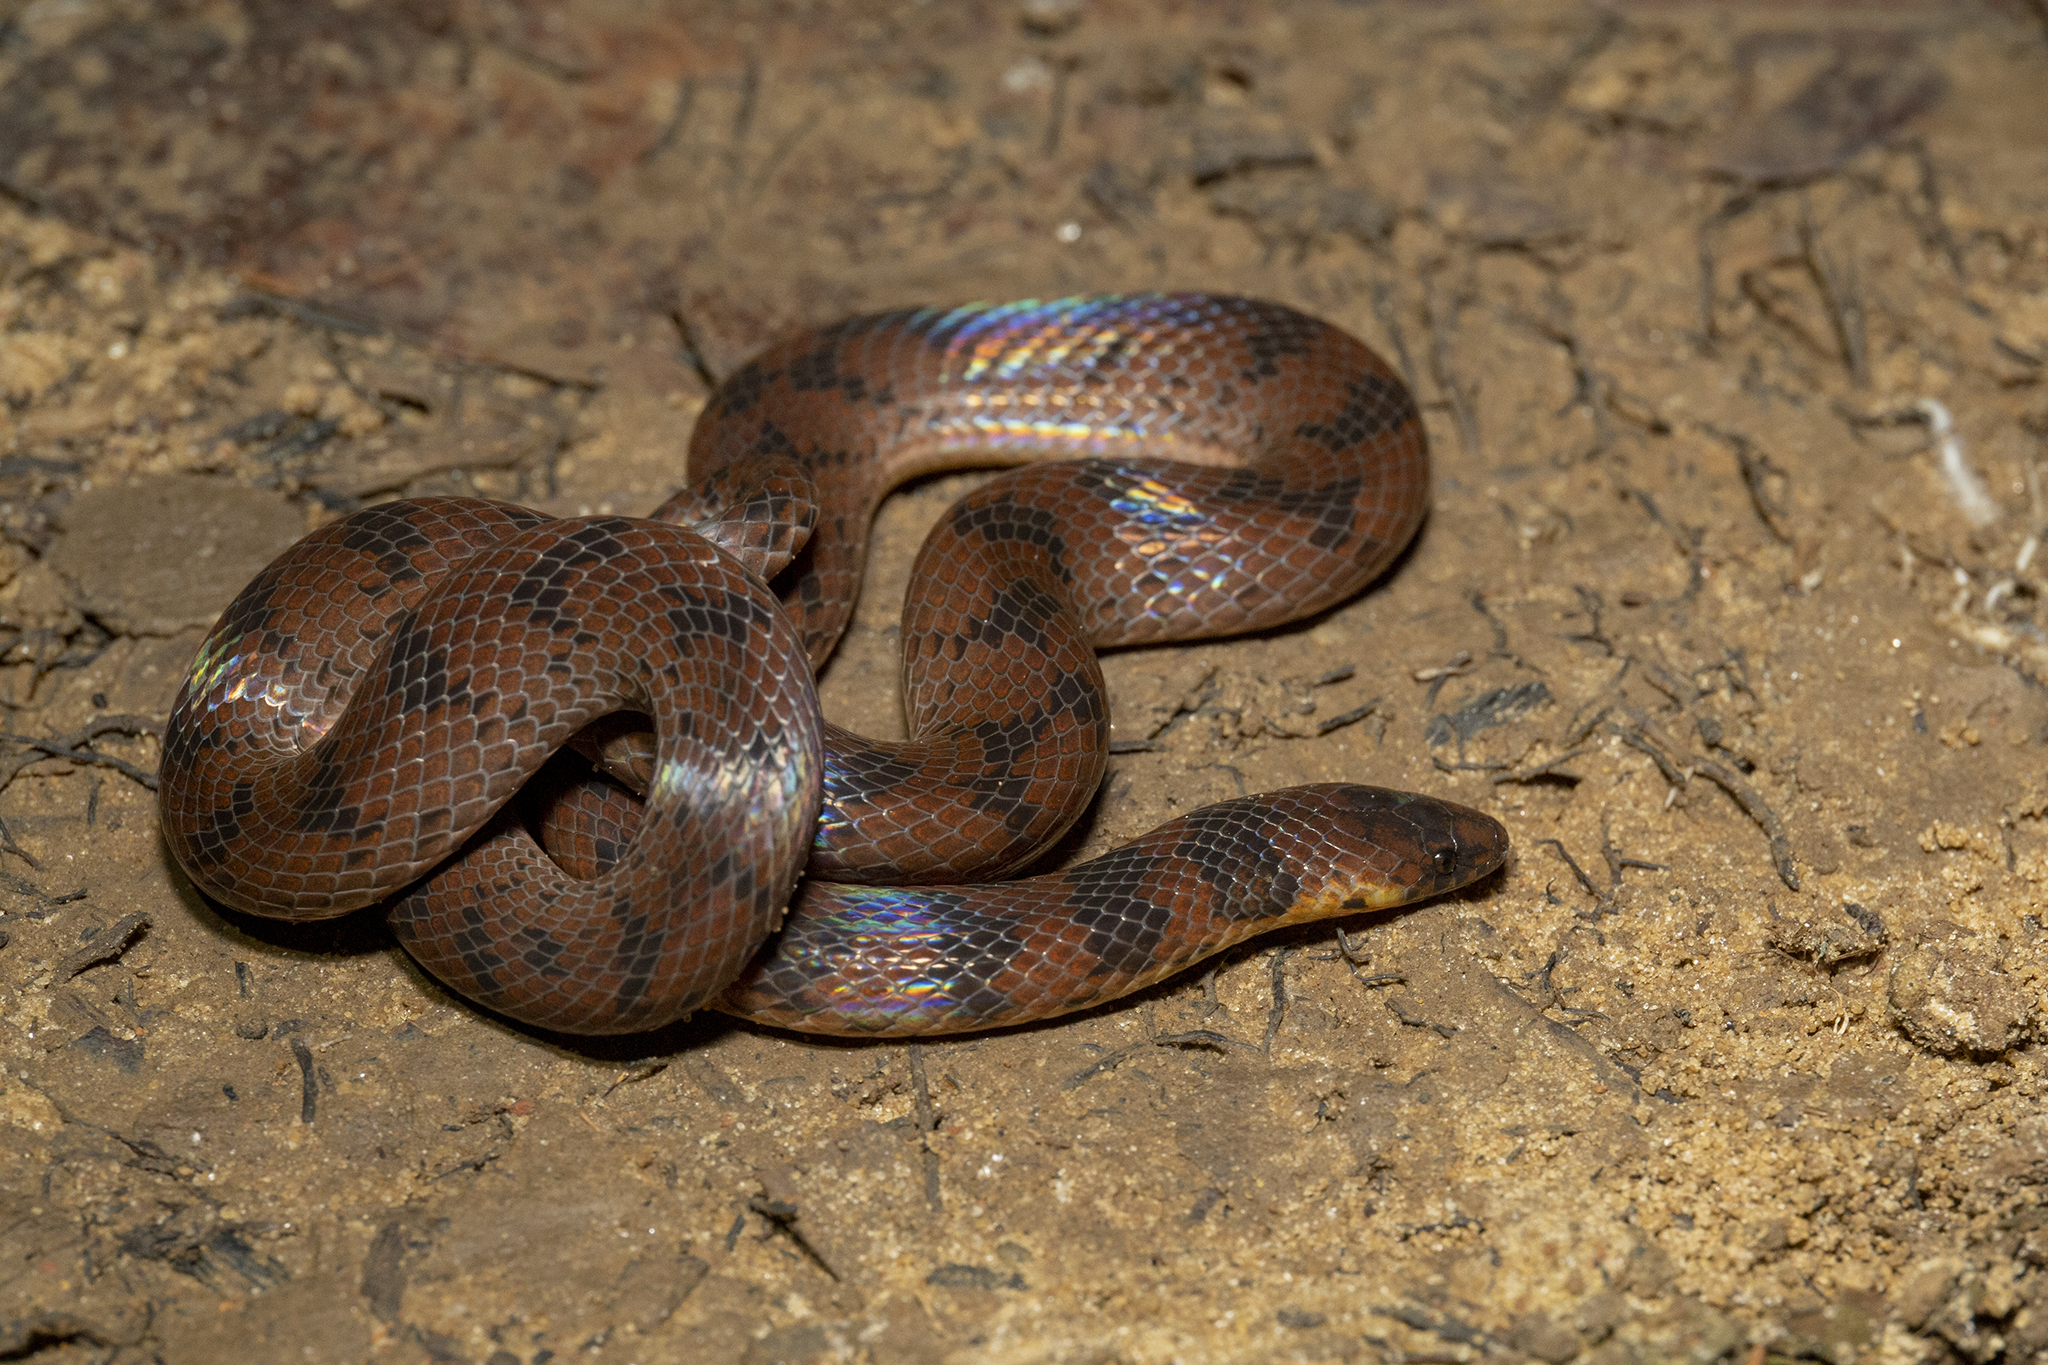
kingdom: Animalia
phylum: Chordata
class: Squamata
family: Colubridae
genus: Atractus
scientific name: Atractus torquatus
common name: Neckband ground snake
